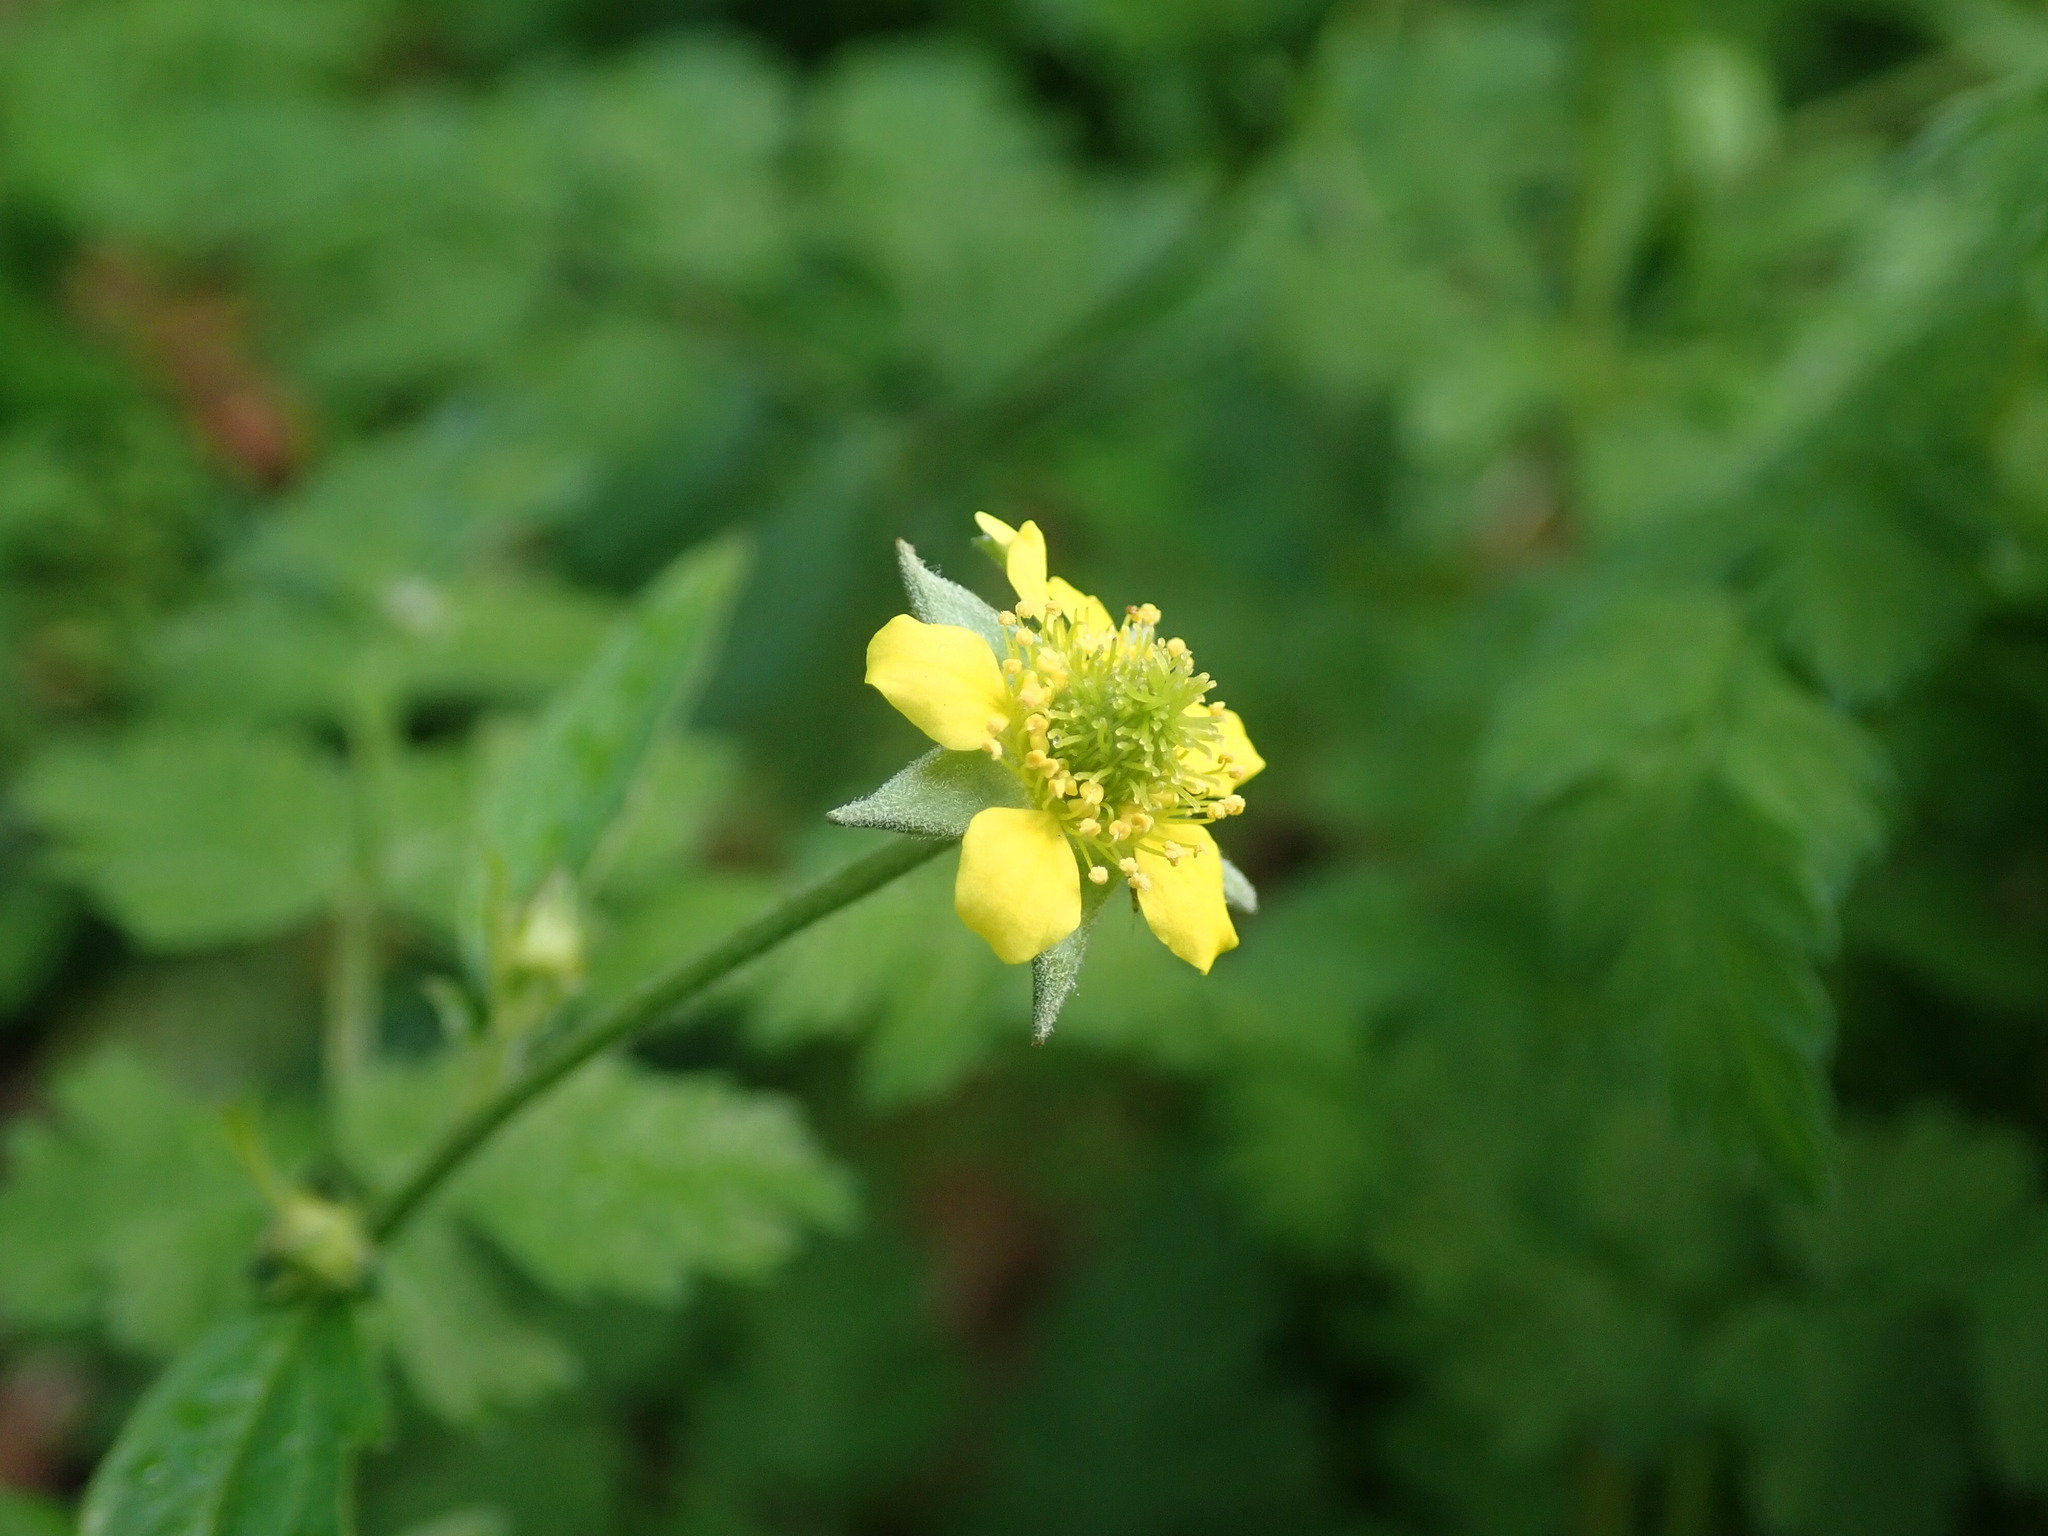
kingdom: Plantae
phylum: Tracheophyta
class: Magnoliopsida
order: Rosales
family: Rosaceae
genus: Geum
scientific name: Geum urbanum
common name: Wood avens
